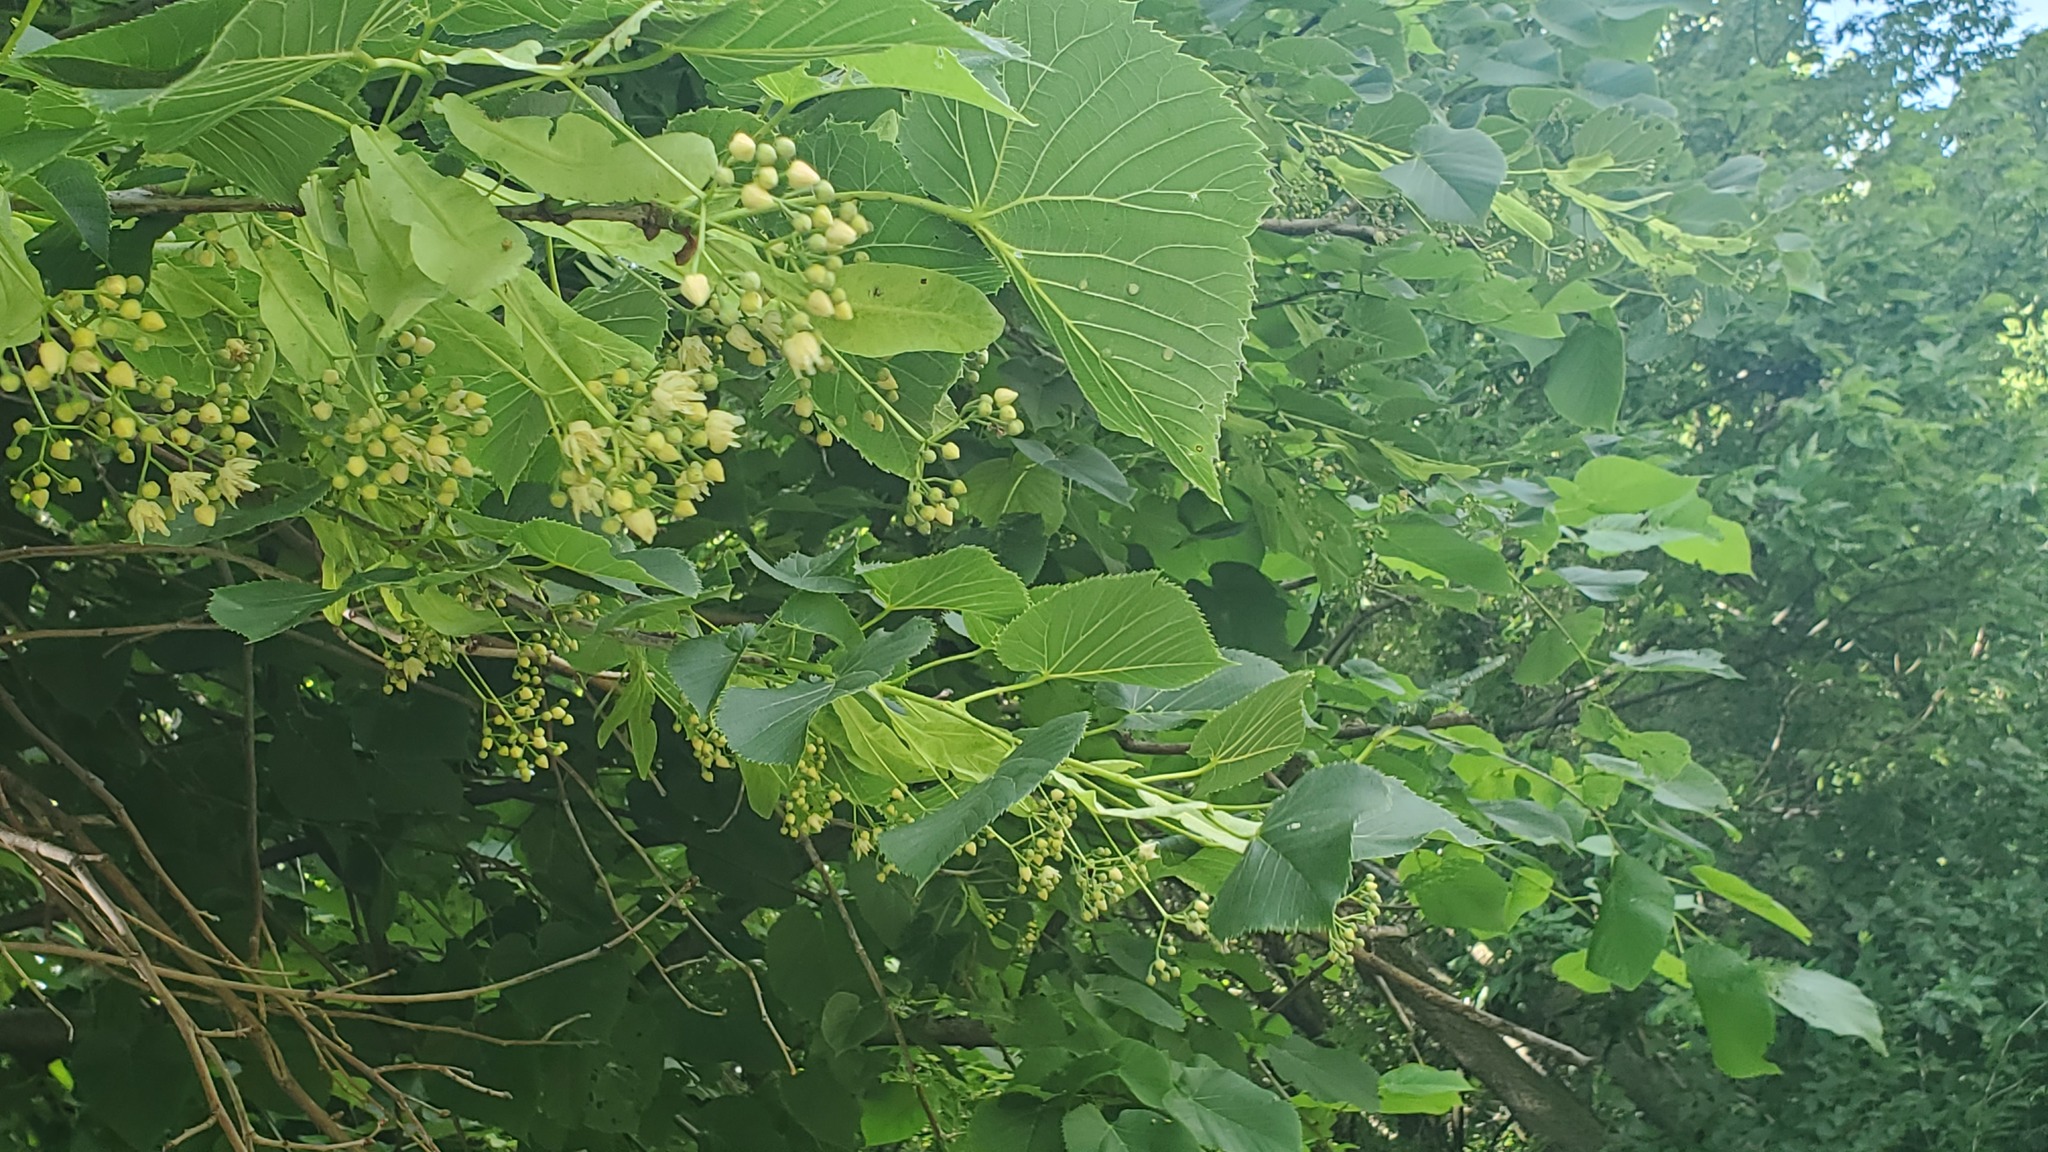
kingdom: Plantae
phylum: Tracheophyta
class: Magnoliopsida
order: Malvales
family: Malvaceae
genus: Tilia
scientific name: Tilia americana
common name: Basswood
